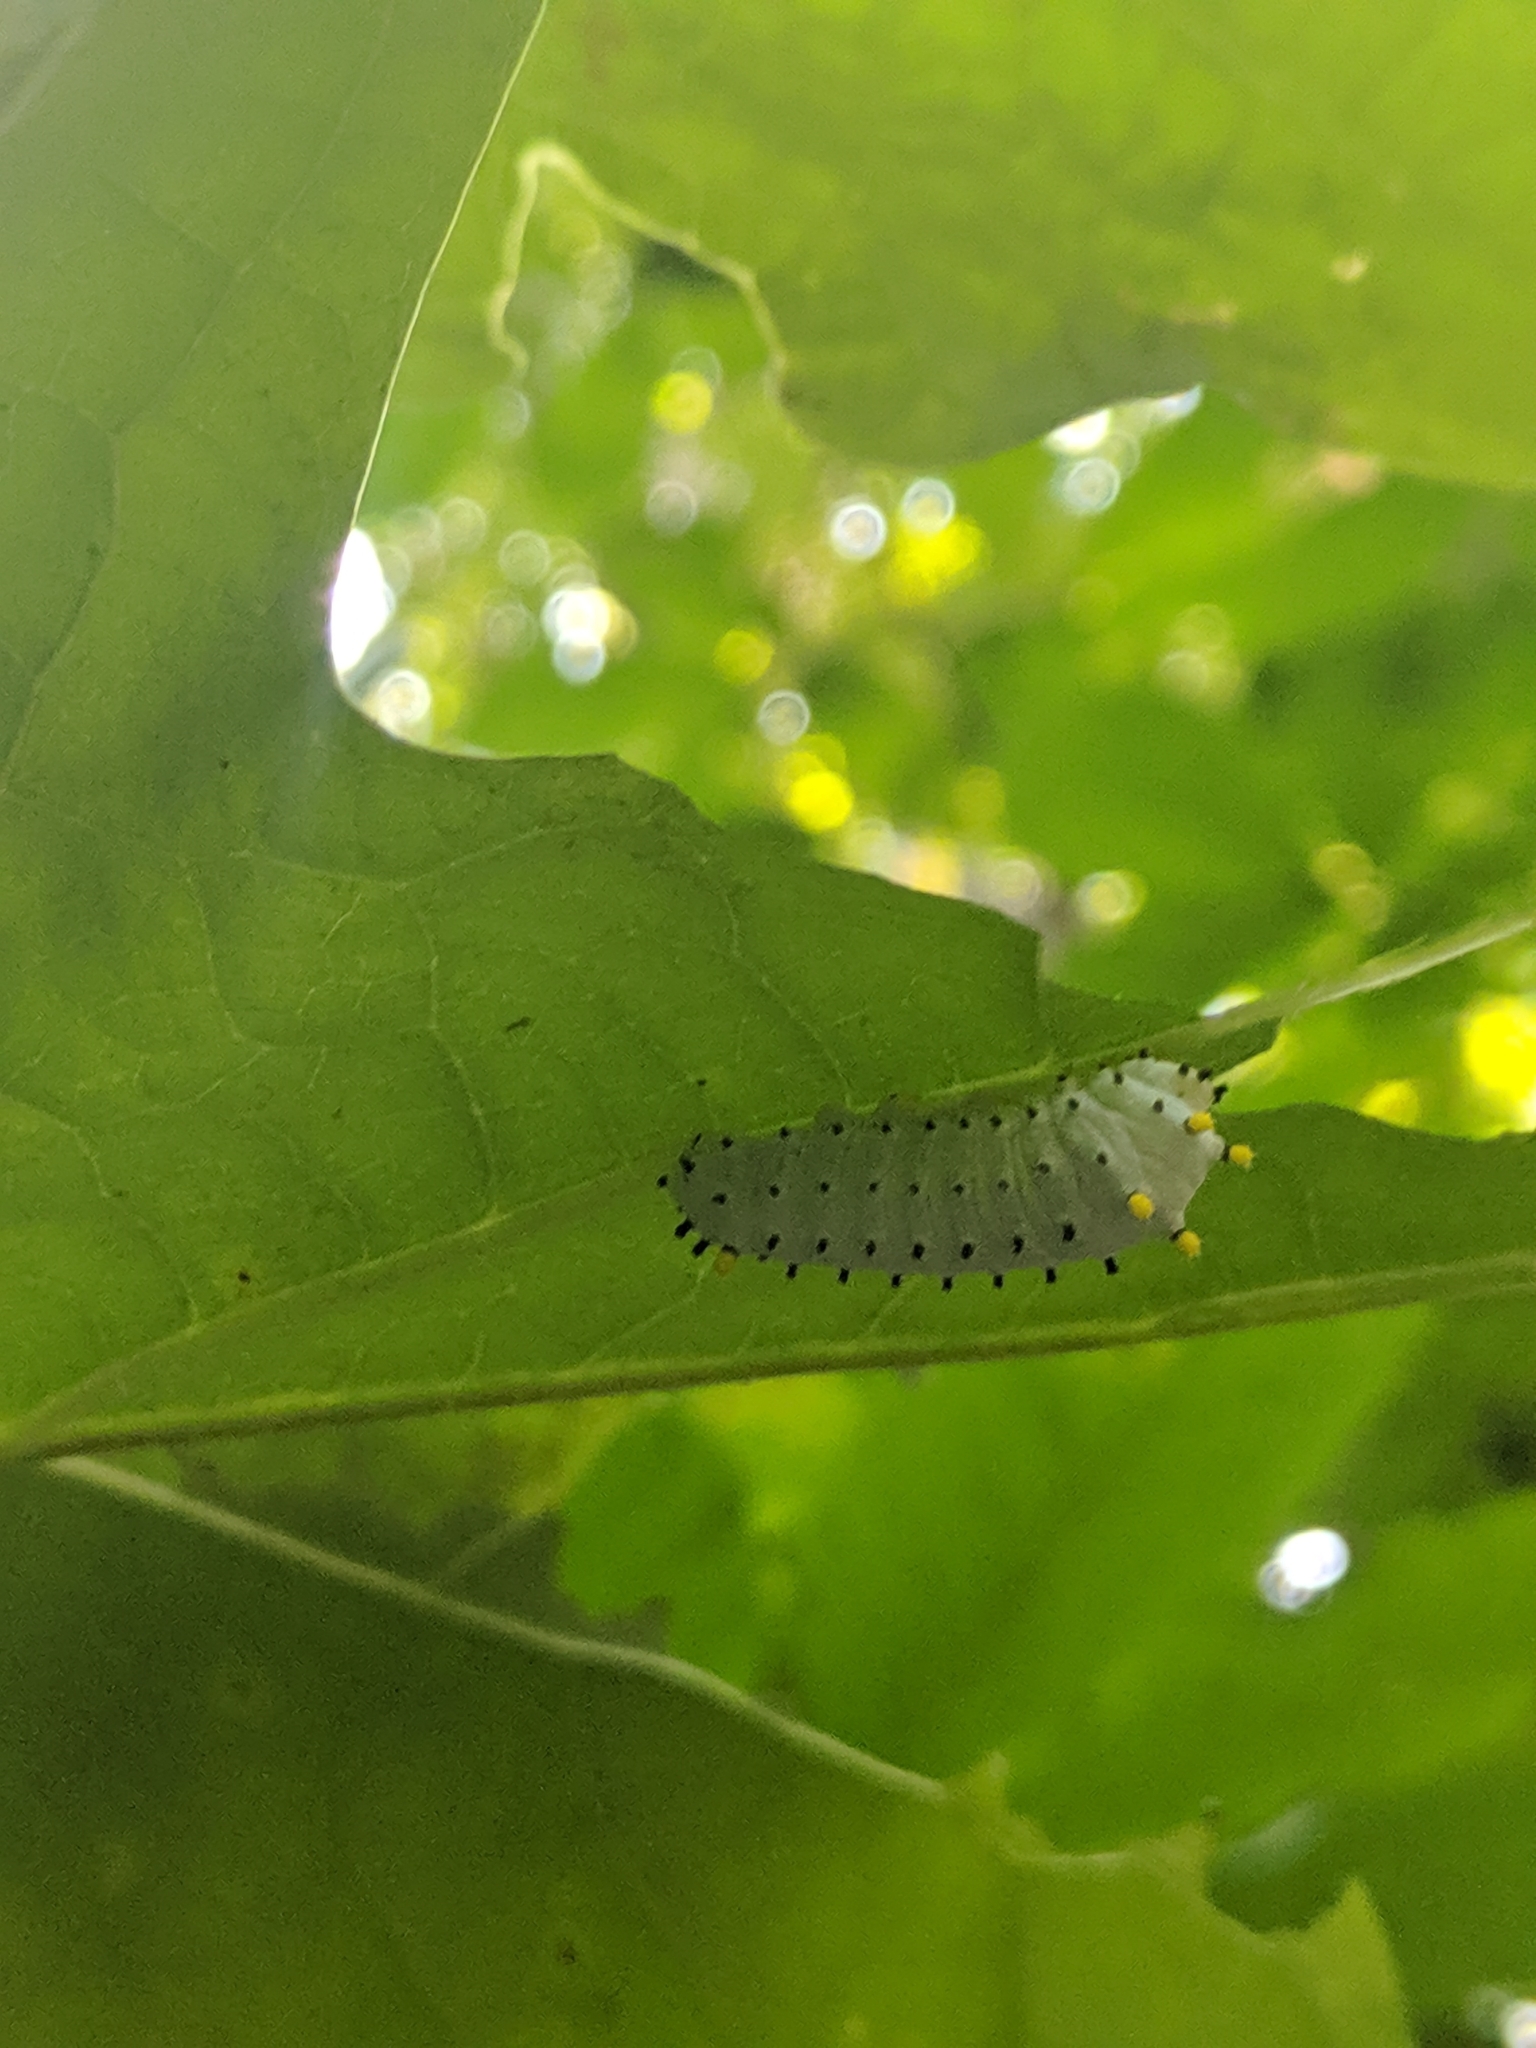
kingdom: Animalia
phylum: Arthropoda
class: Insecta
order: Lepidoptera
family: Saturniidae
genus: Callosamia
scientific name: Callosamia promethea
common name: Promethea silkmoth
